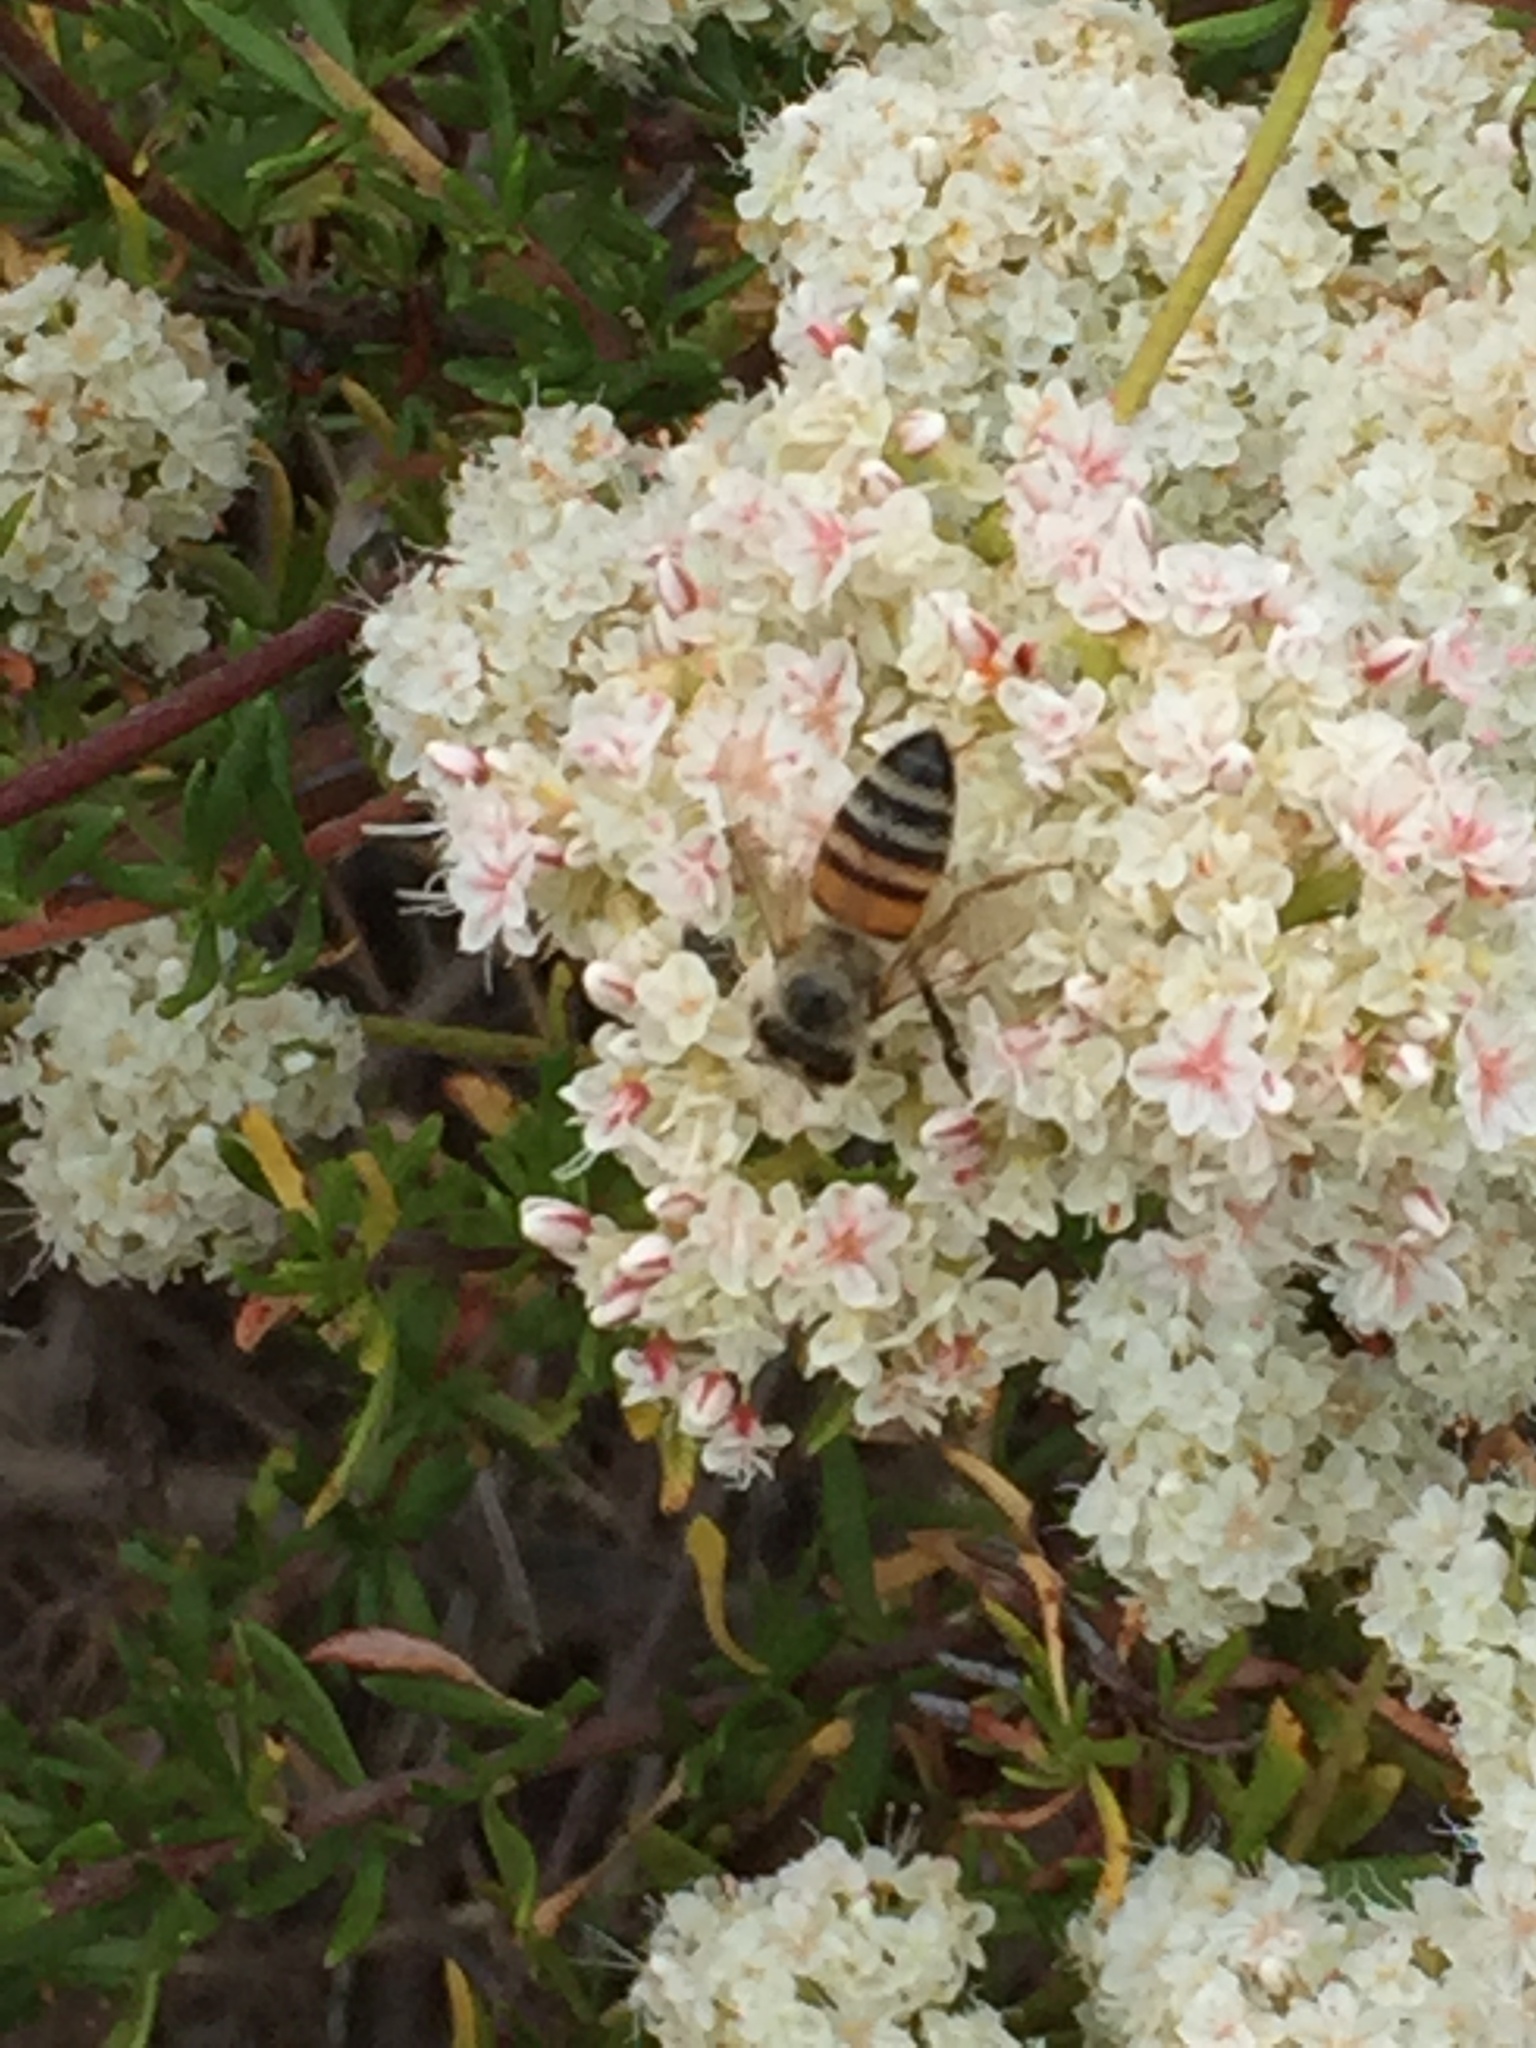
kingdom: Animalia
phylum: Arthropoda
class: Insecta
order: Hymenoptera
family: Apidae
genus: Apis
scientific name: Apis mellifera
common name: Honey bee
